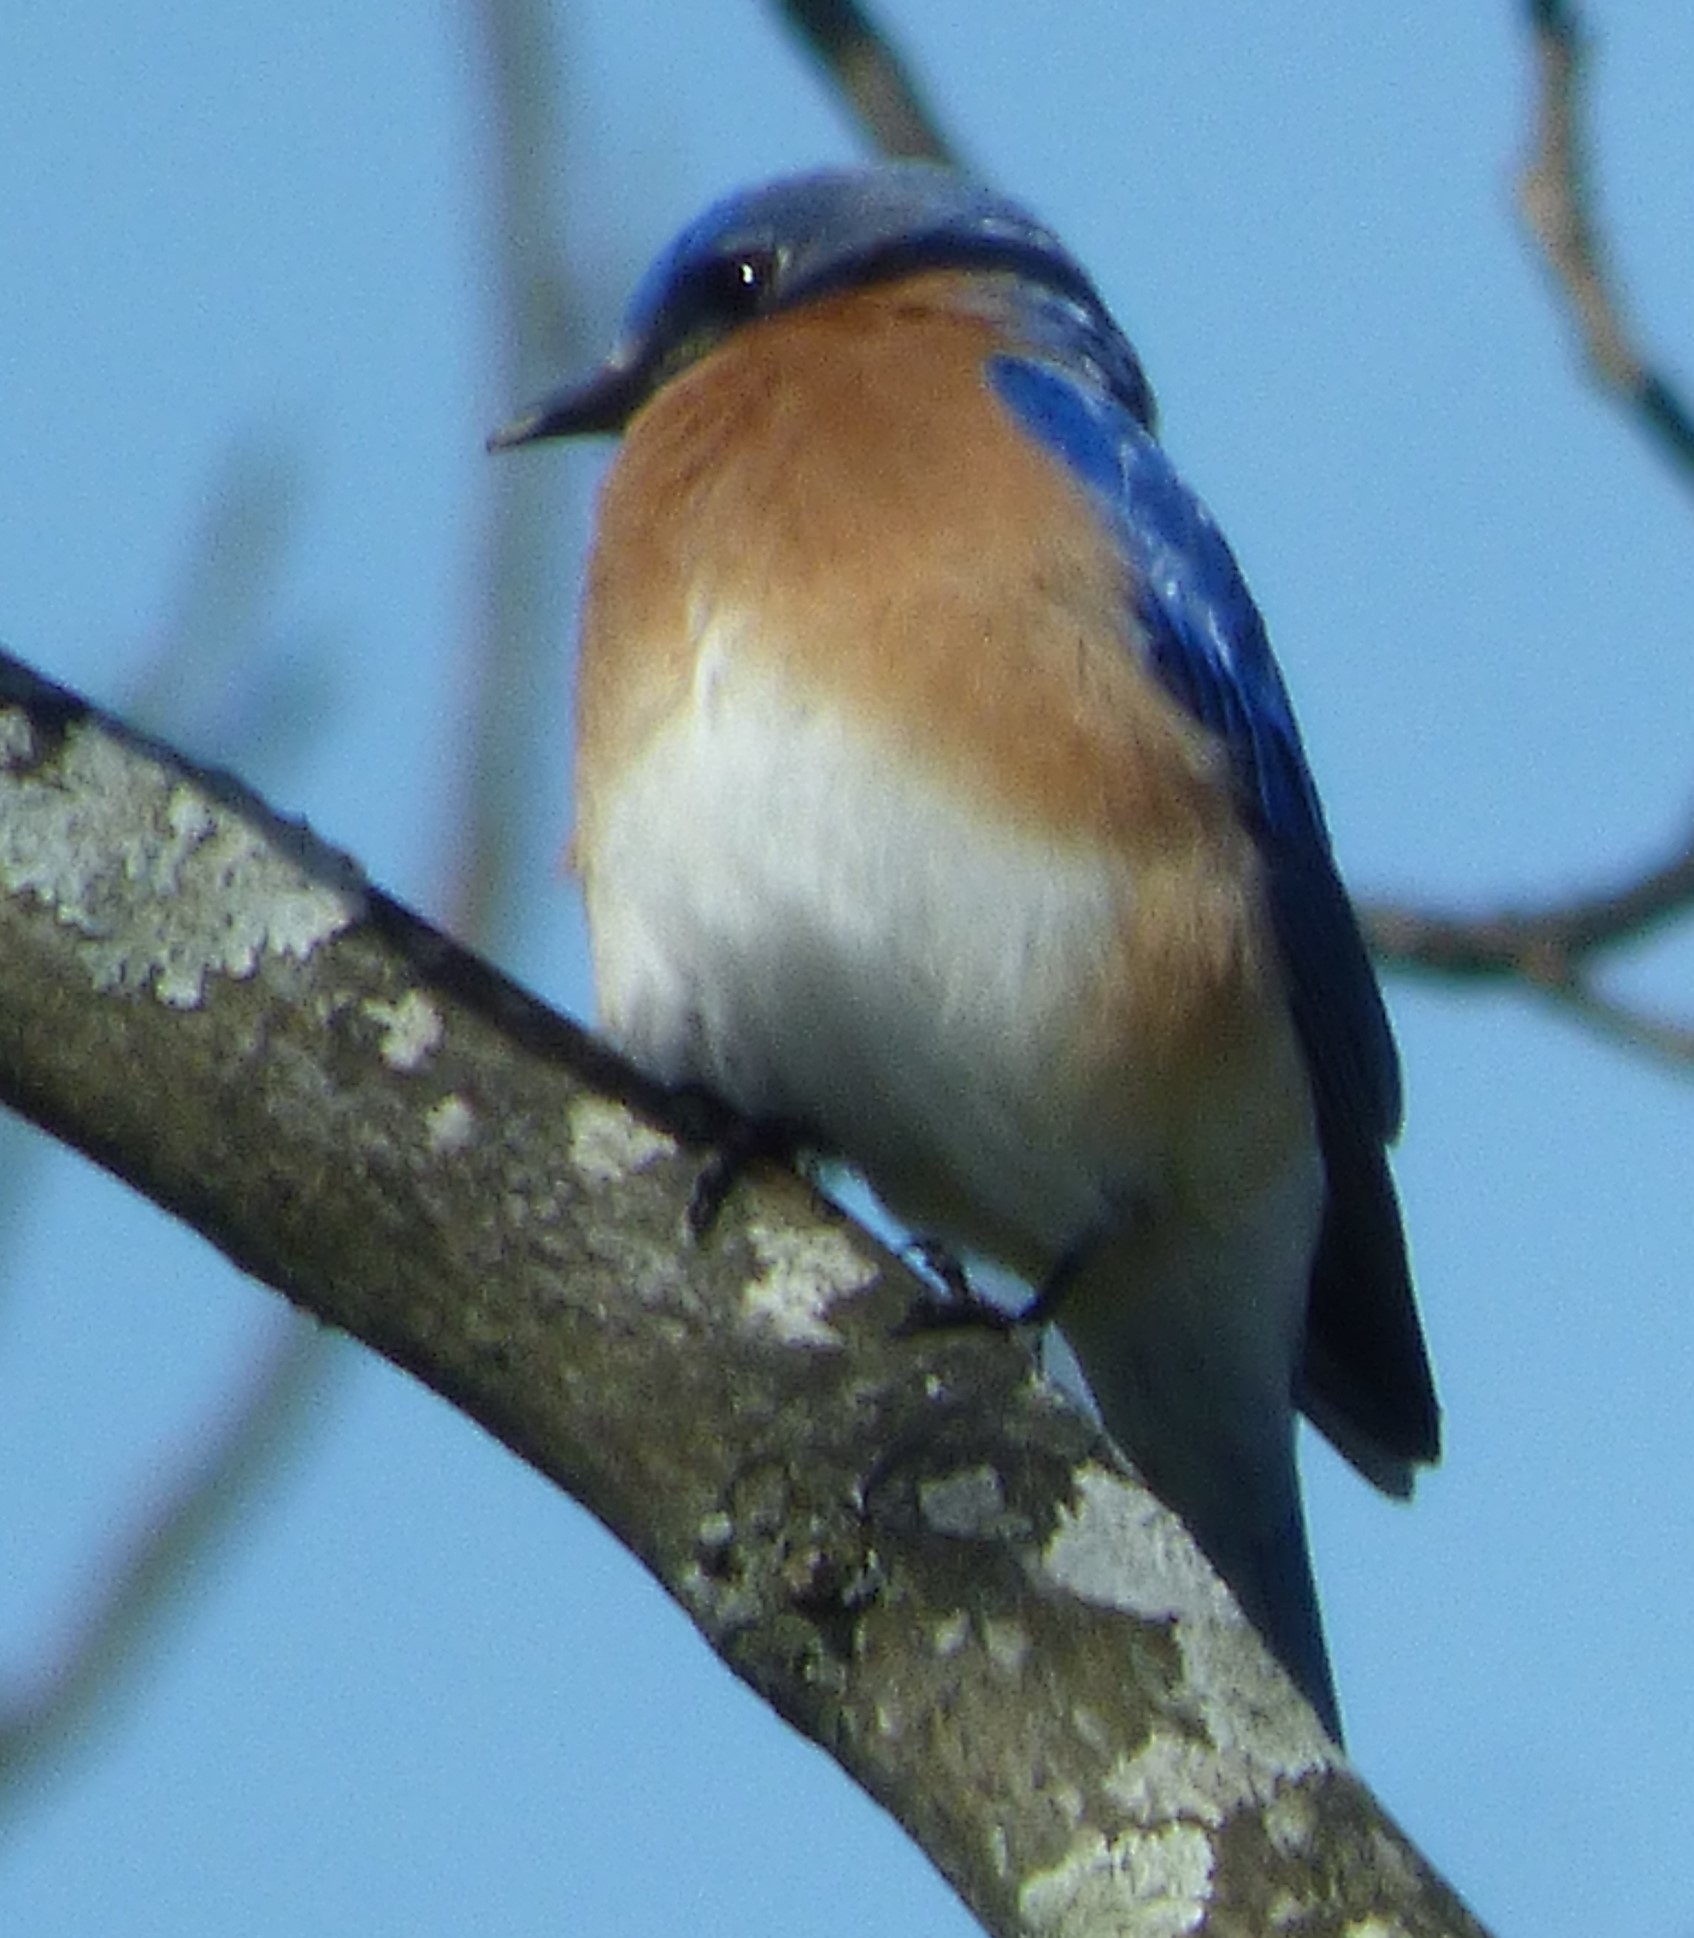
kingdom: Animalia
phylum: Chordata
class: Aves
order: Passeriformes
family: Turdidae
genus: Sialia
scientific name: Sialia sialis
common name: Eastern bluebird
